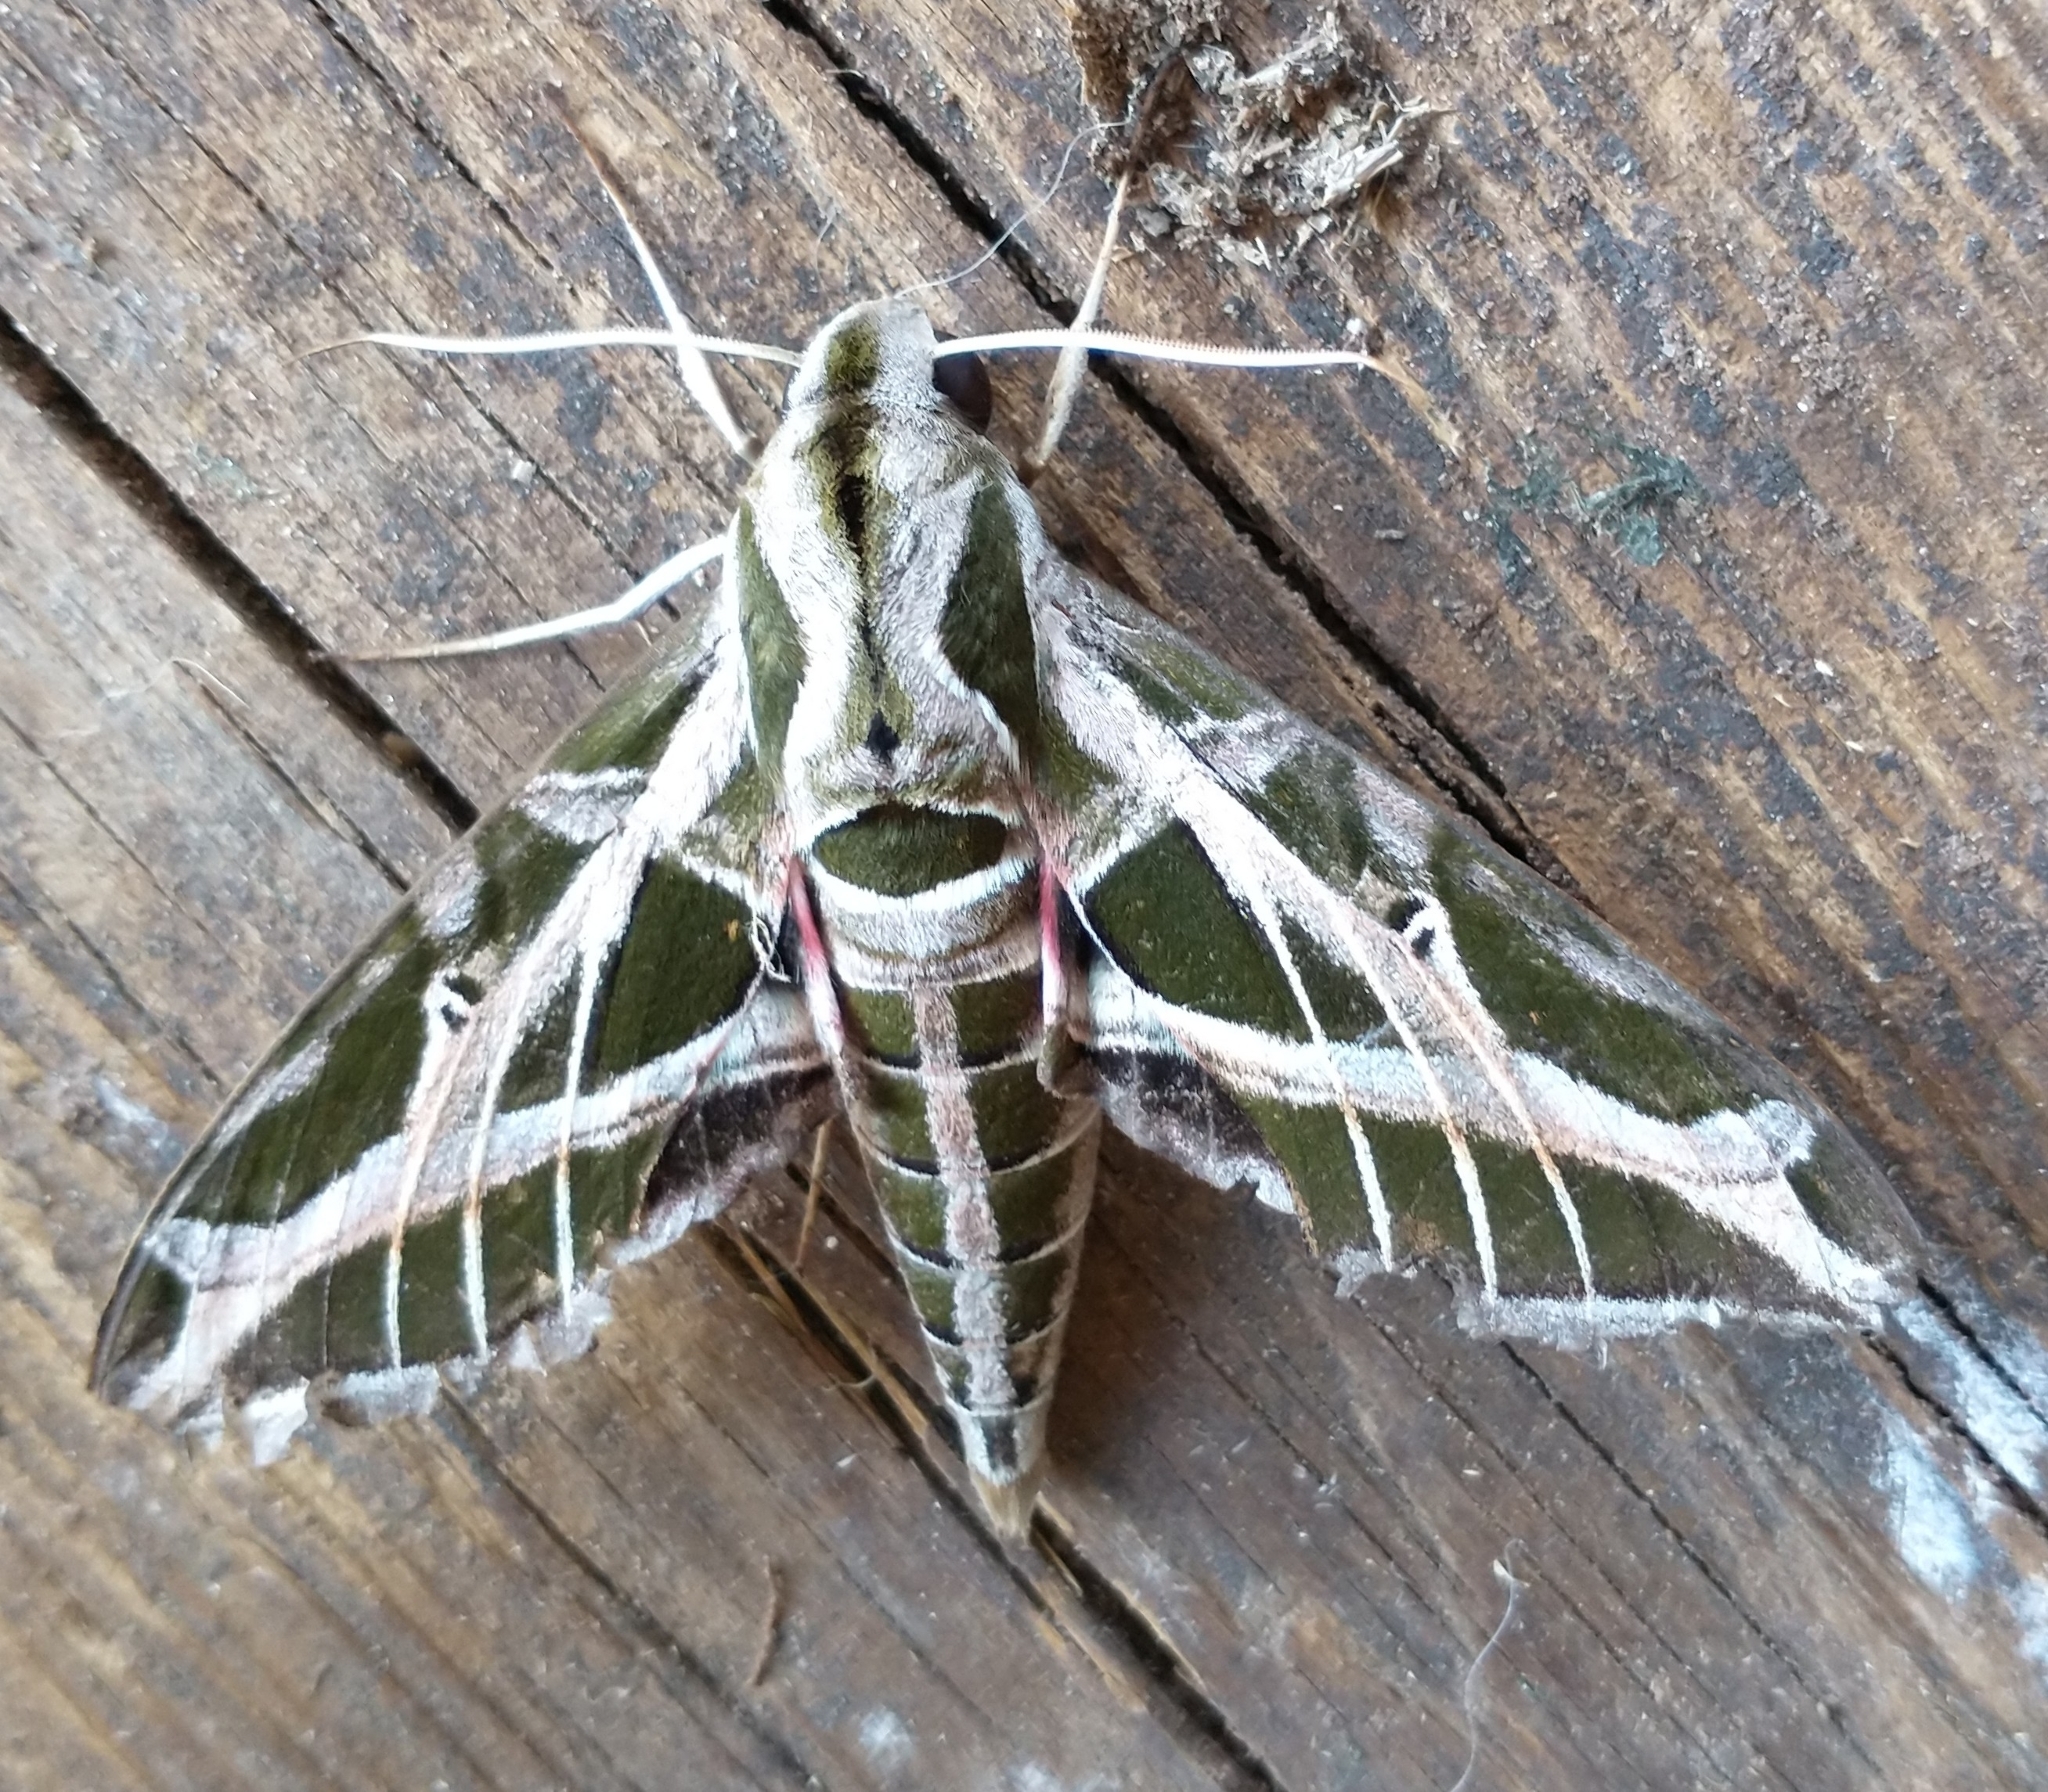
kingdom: Animalia
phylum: Arthropoda
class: Insecta
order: Lepidoptera
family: Sphingidae
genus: Eumorpha
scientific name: Eumorpha vitis
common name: Vine sphinx
